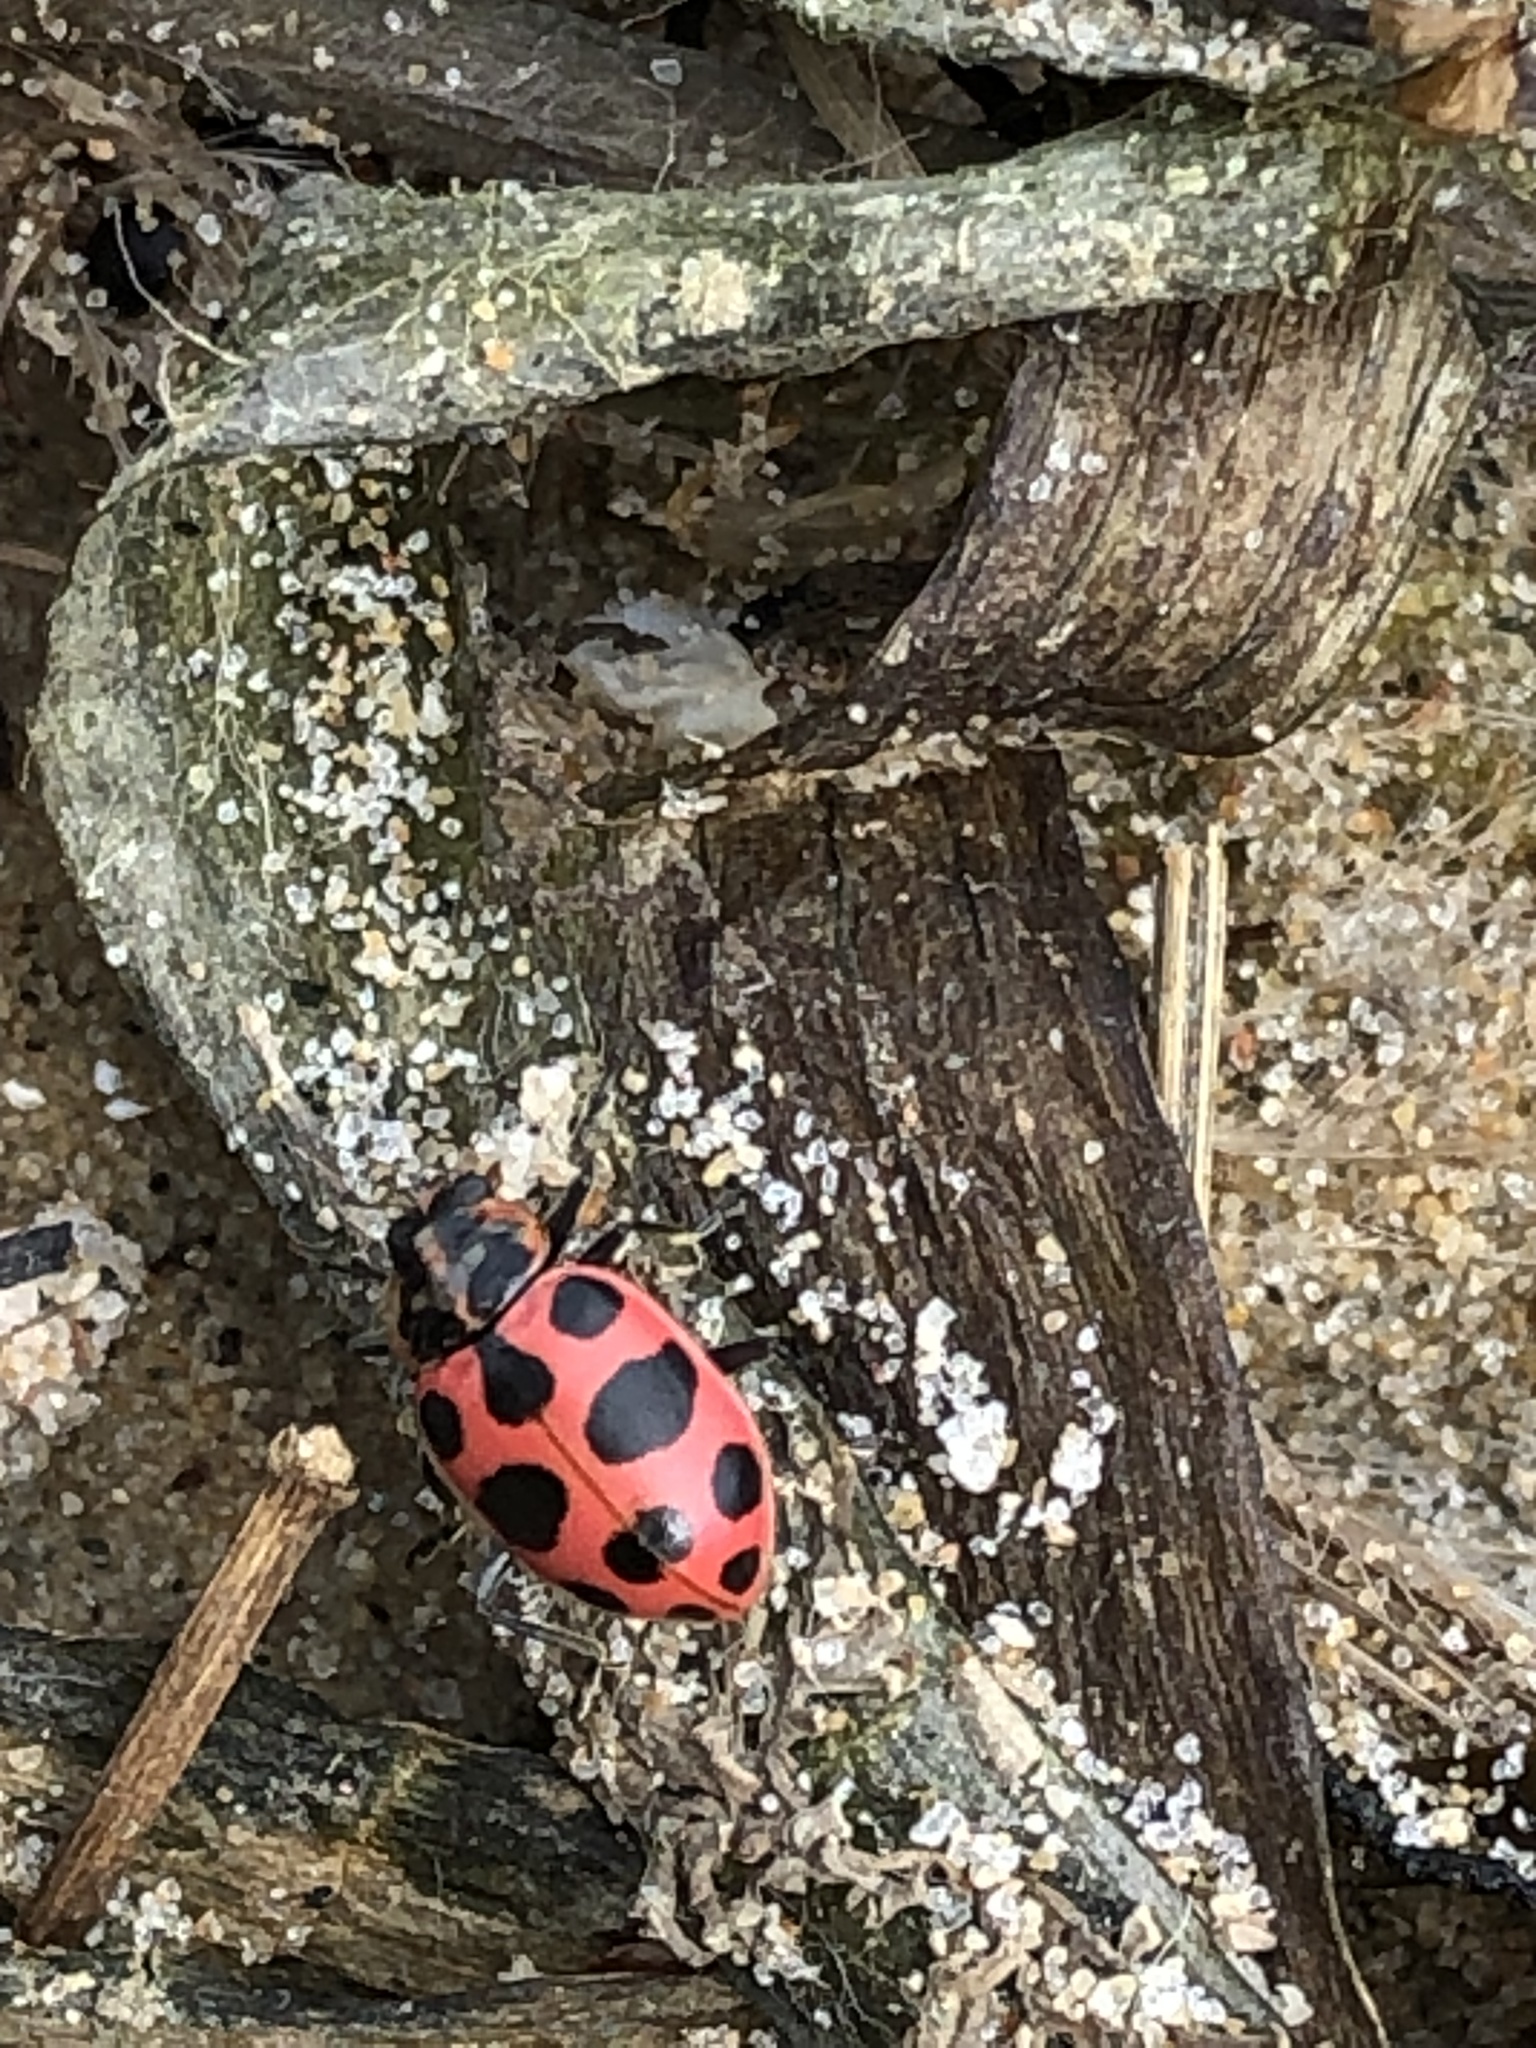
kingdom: Animalia
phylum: Arthropoda
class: Insecta
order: Coleoptera
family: Coccinellidae
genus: Coleomegilla
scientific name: Coleomegilla maculata
